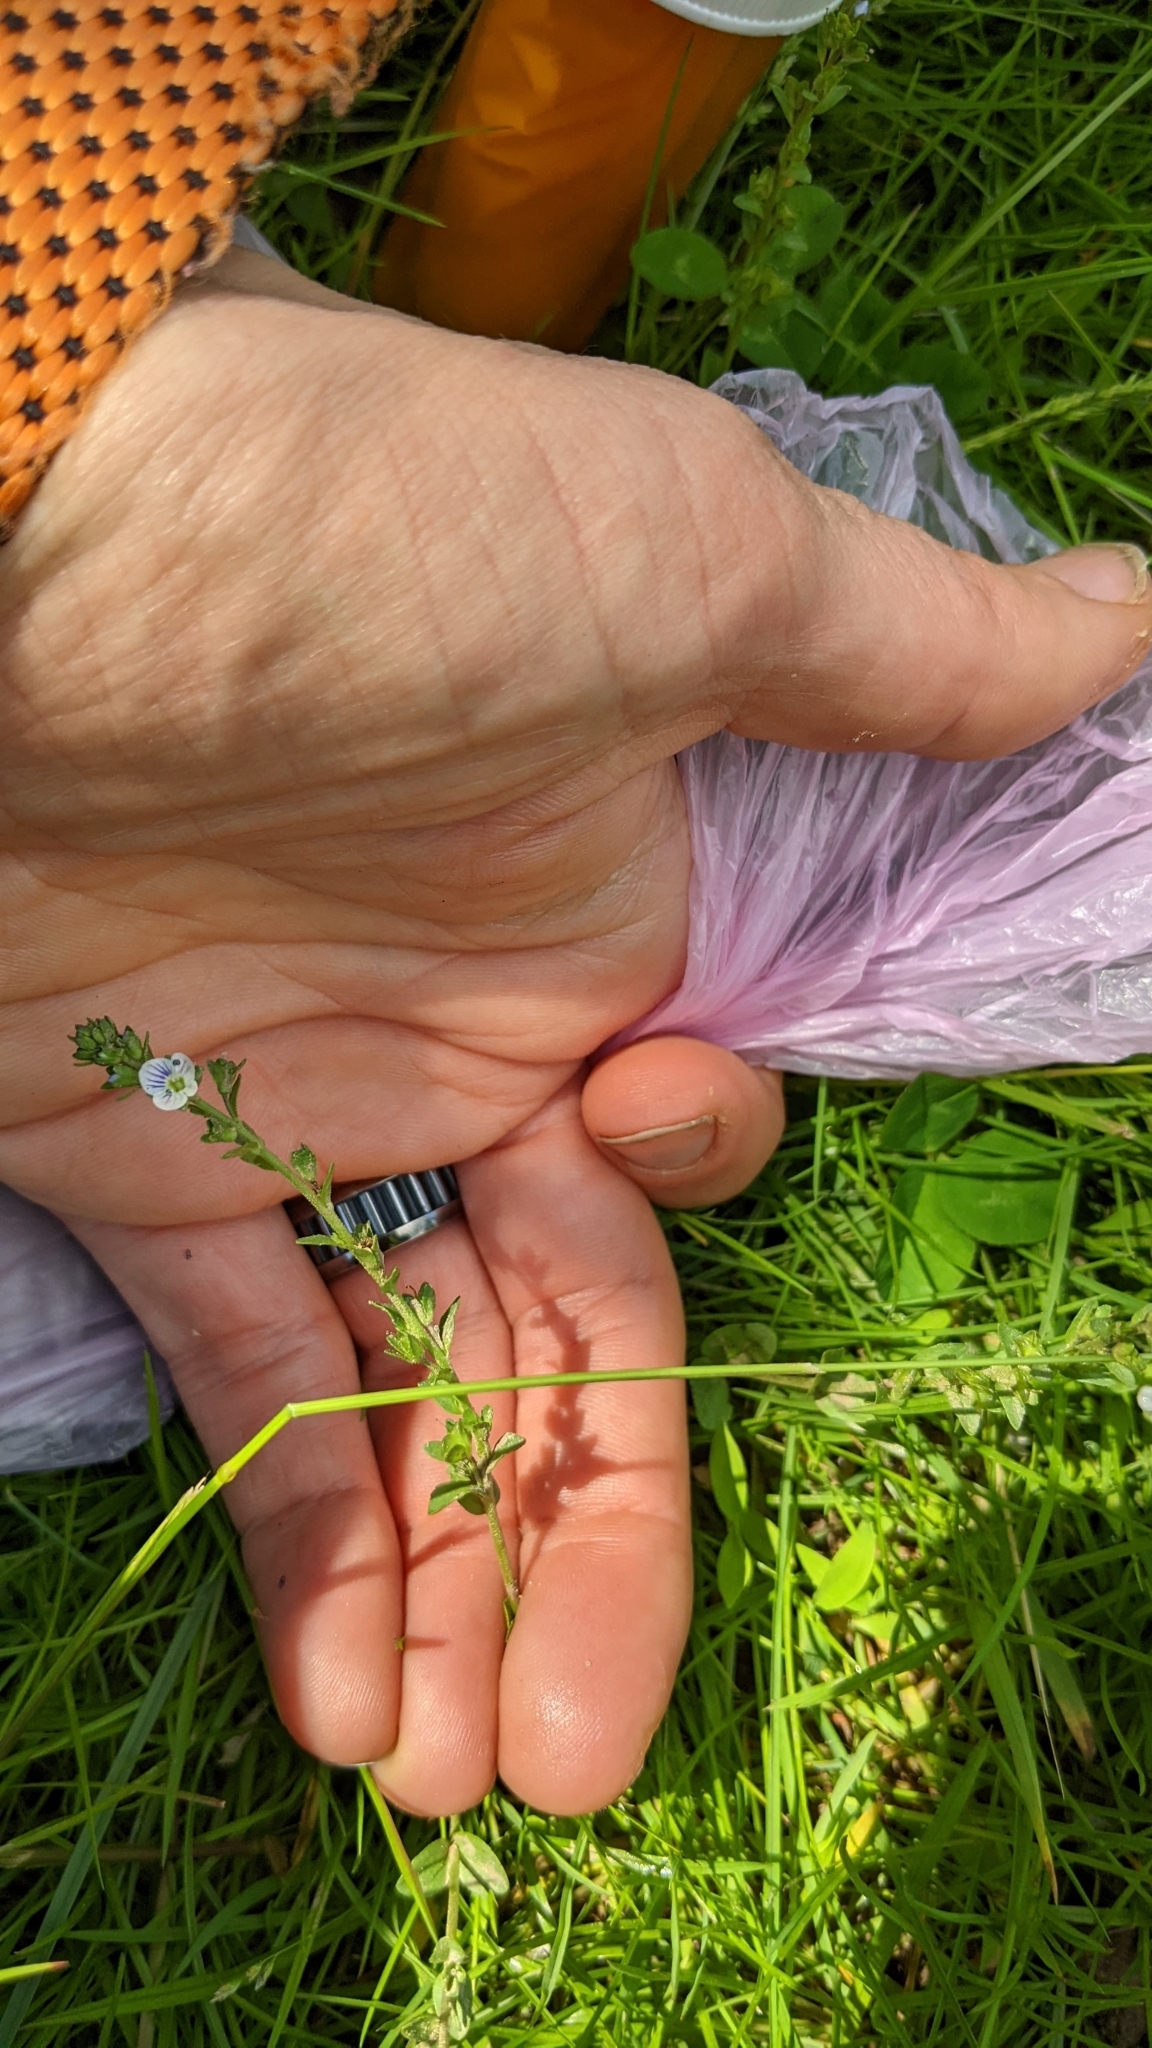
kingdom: Plantae
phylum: Tracheophyta
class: Magnoliopsida
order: Lamiales
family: Plantaginaceae
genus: Veronica
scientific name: Veronica serpyllifolia
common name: Thyme-leaved speedwell
